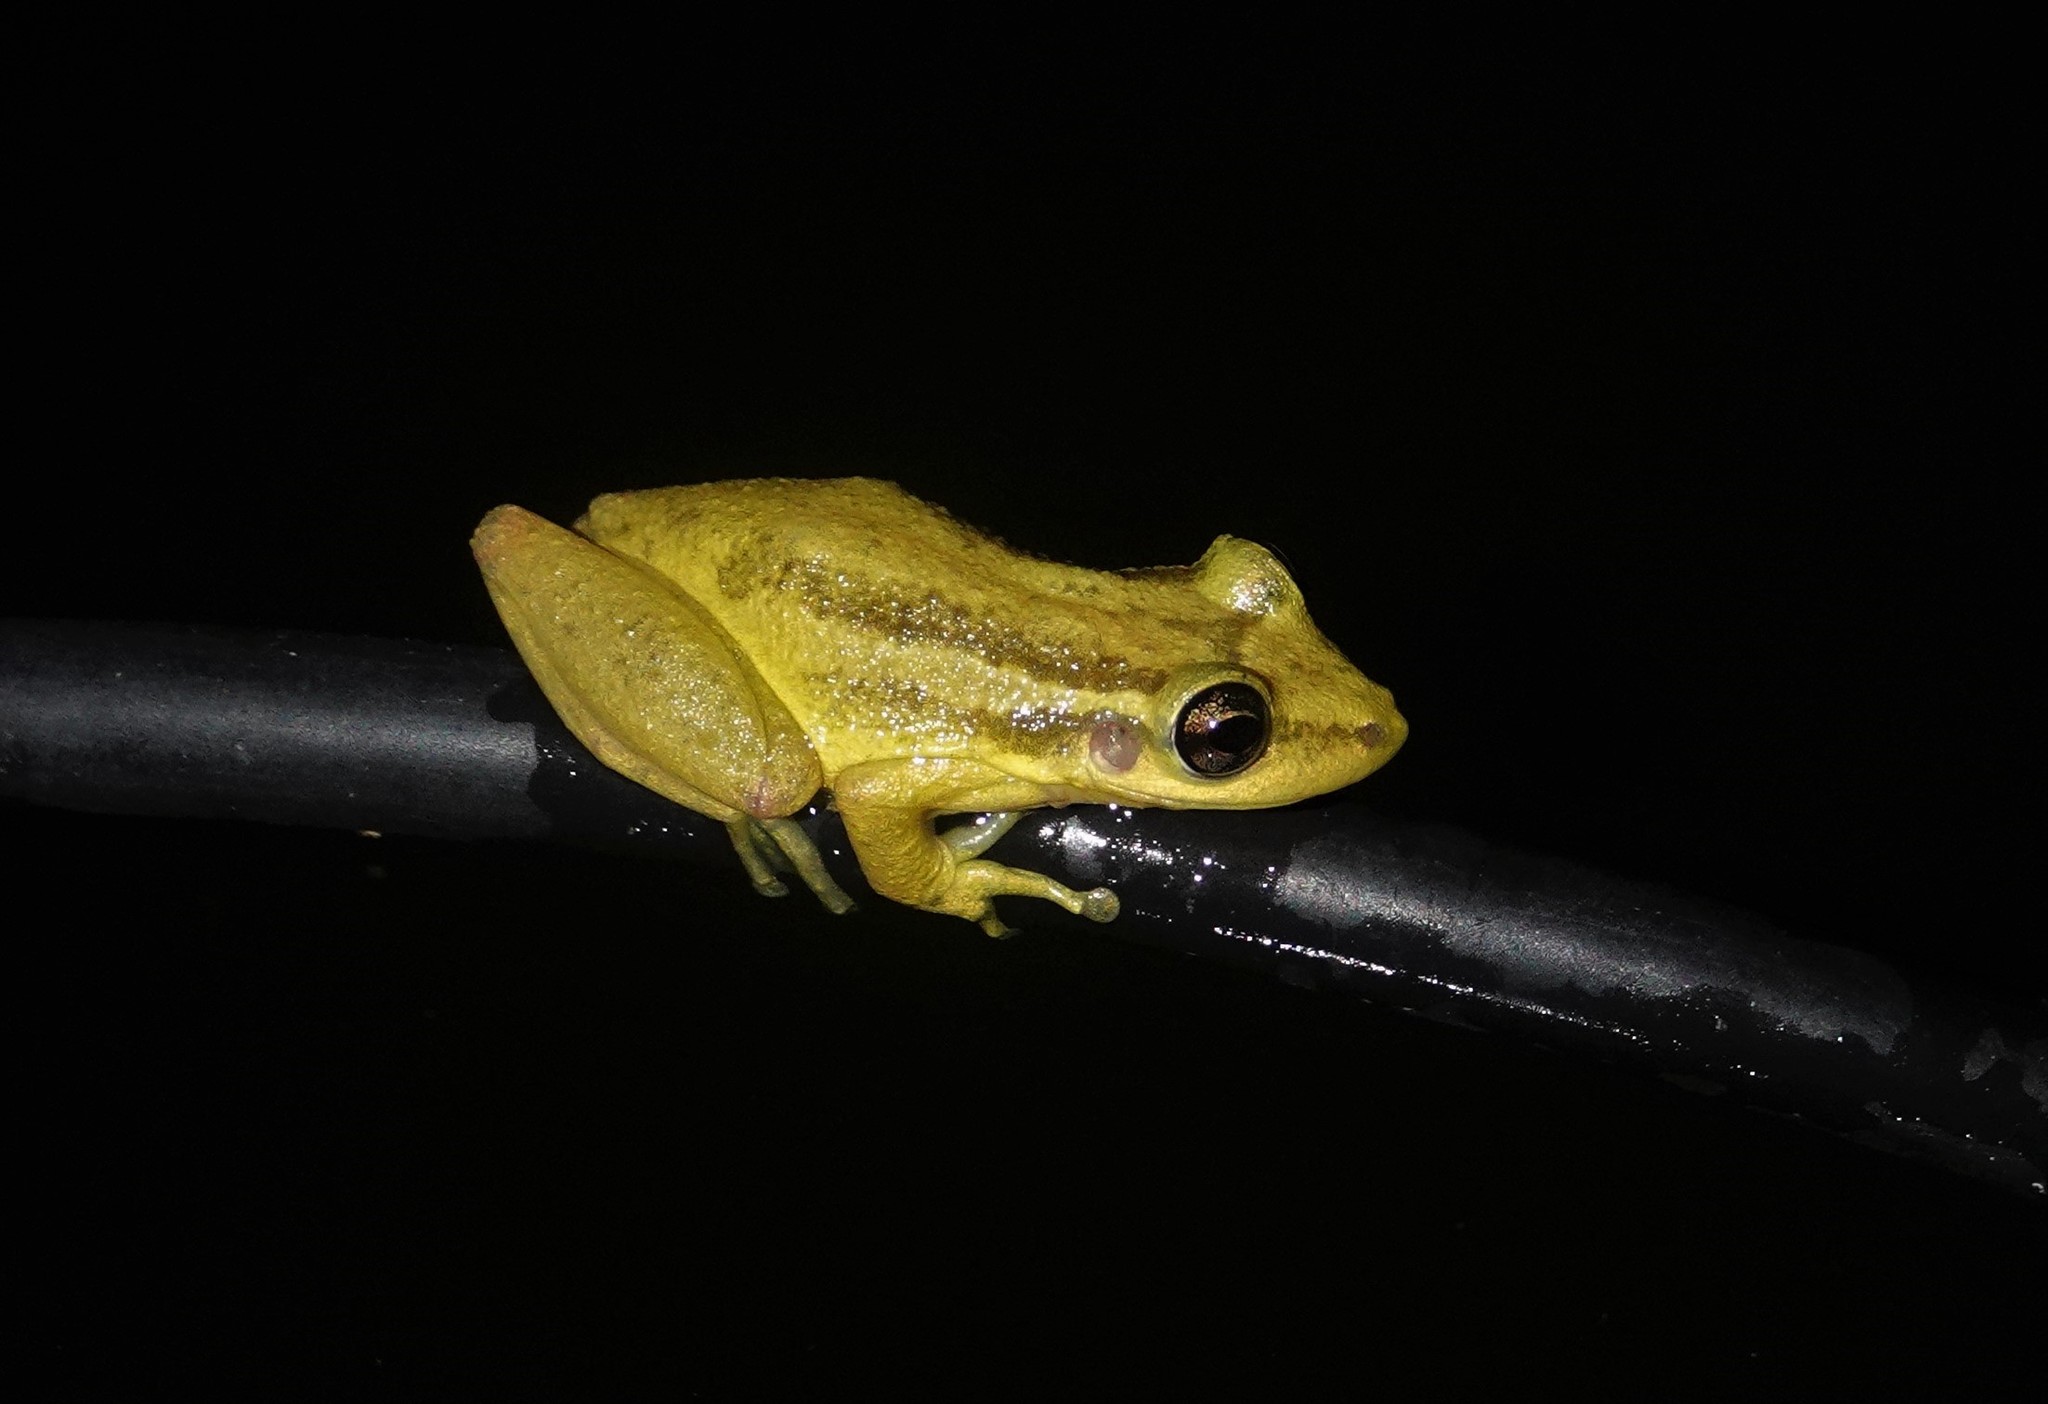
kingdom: Animalia
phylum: Chordata
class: Amphibia
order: Anura
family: Hylidae
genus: Scinax
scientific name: Scinax ruber
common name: Red snouted treefrog
